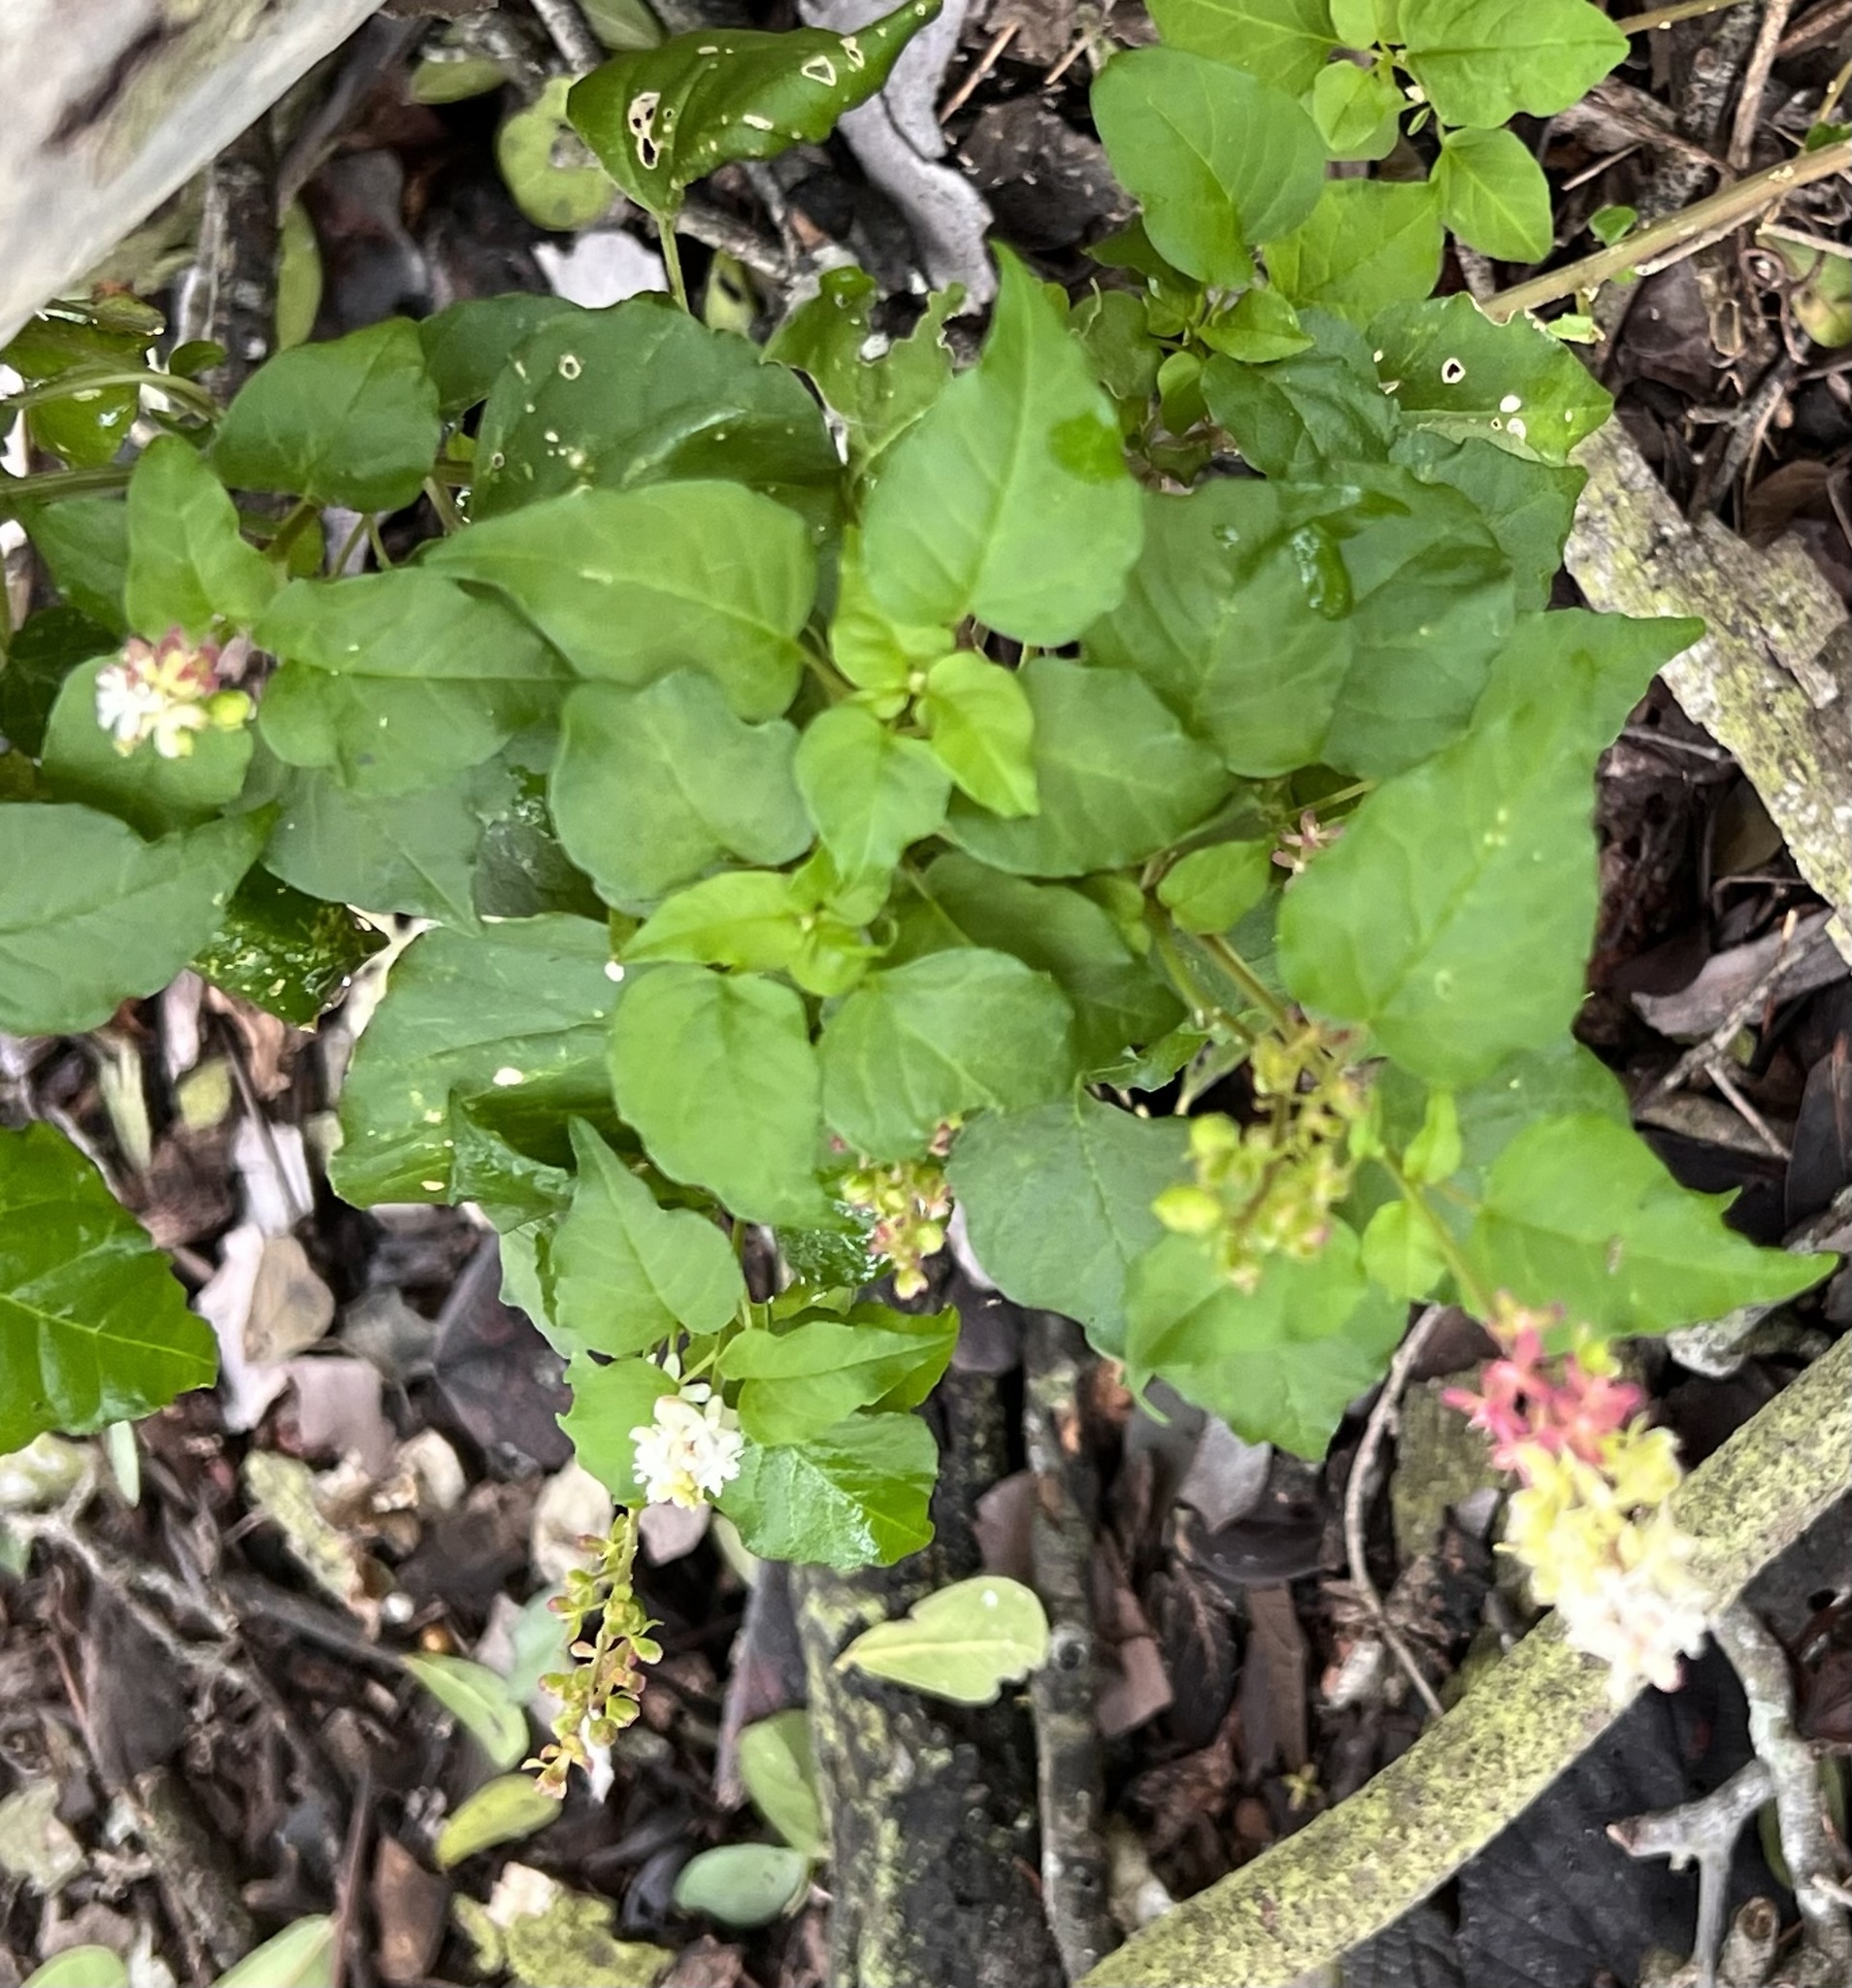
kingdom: Plantae
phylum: Tracheophyta
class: Magnoliopsida
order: Caryophyllales
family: Phytolaccaceae
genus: Rivina
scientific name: Rivina humilis
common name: Rougeplant
